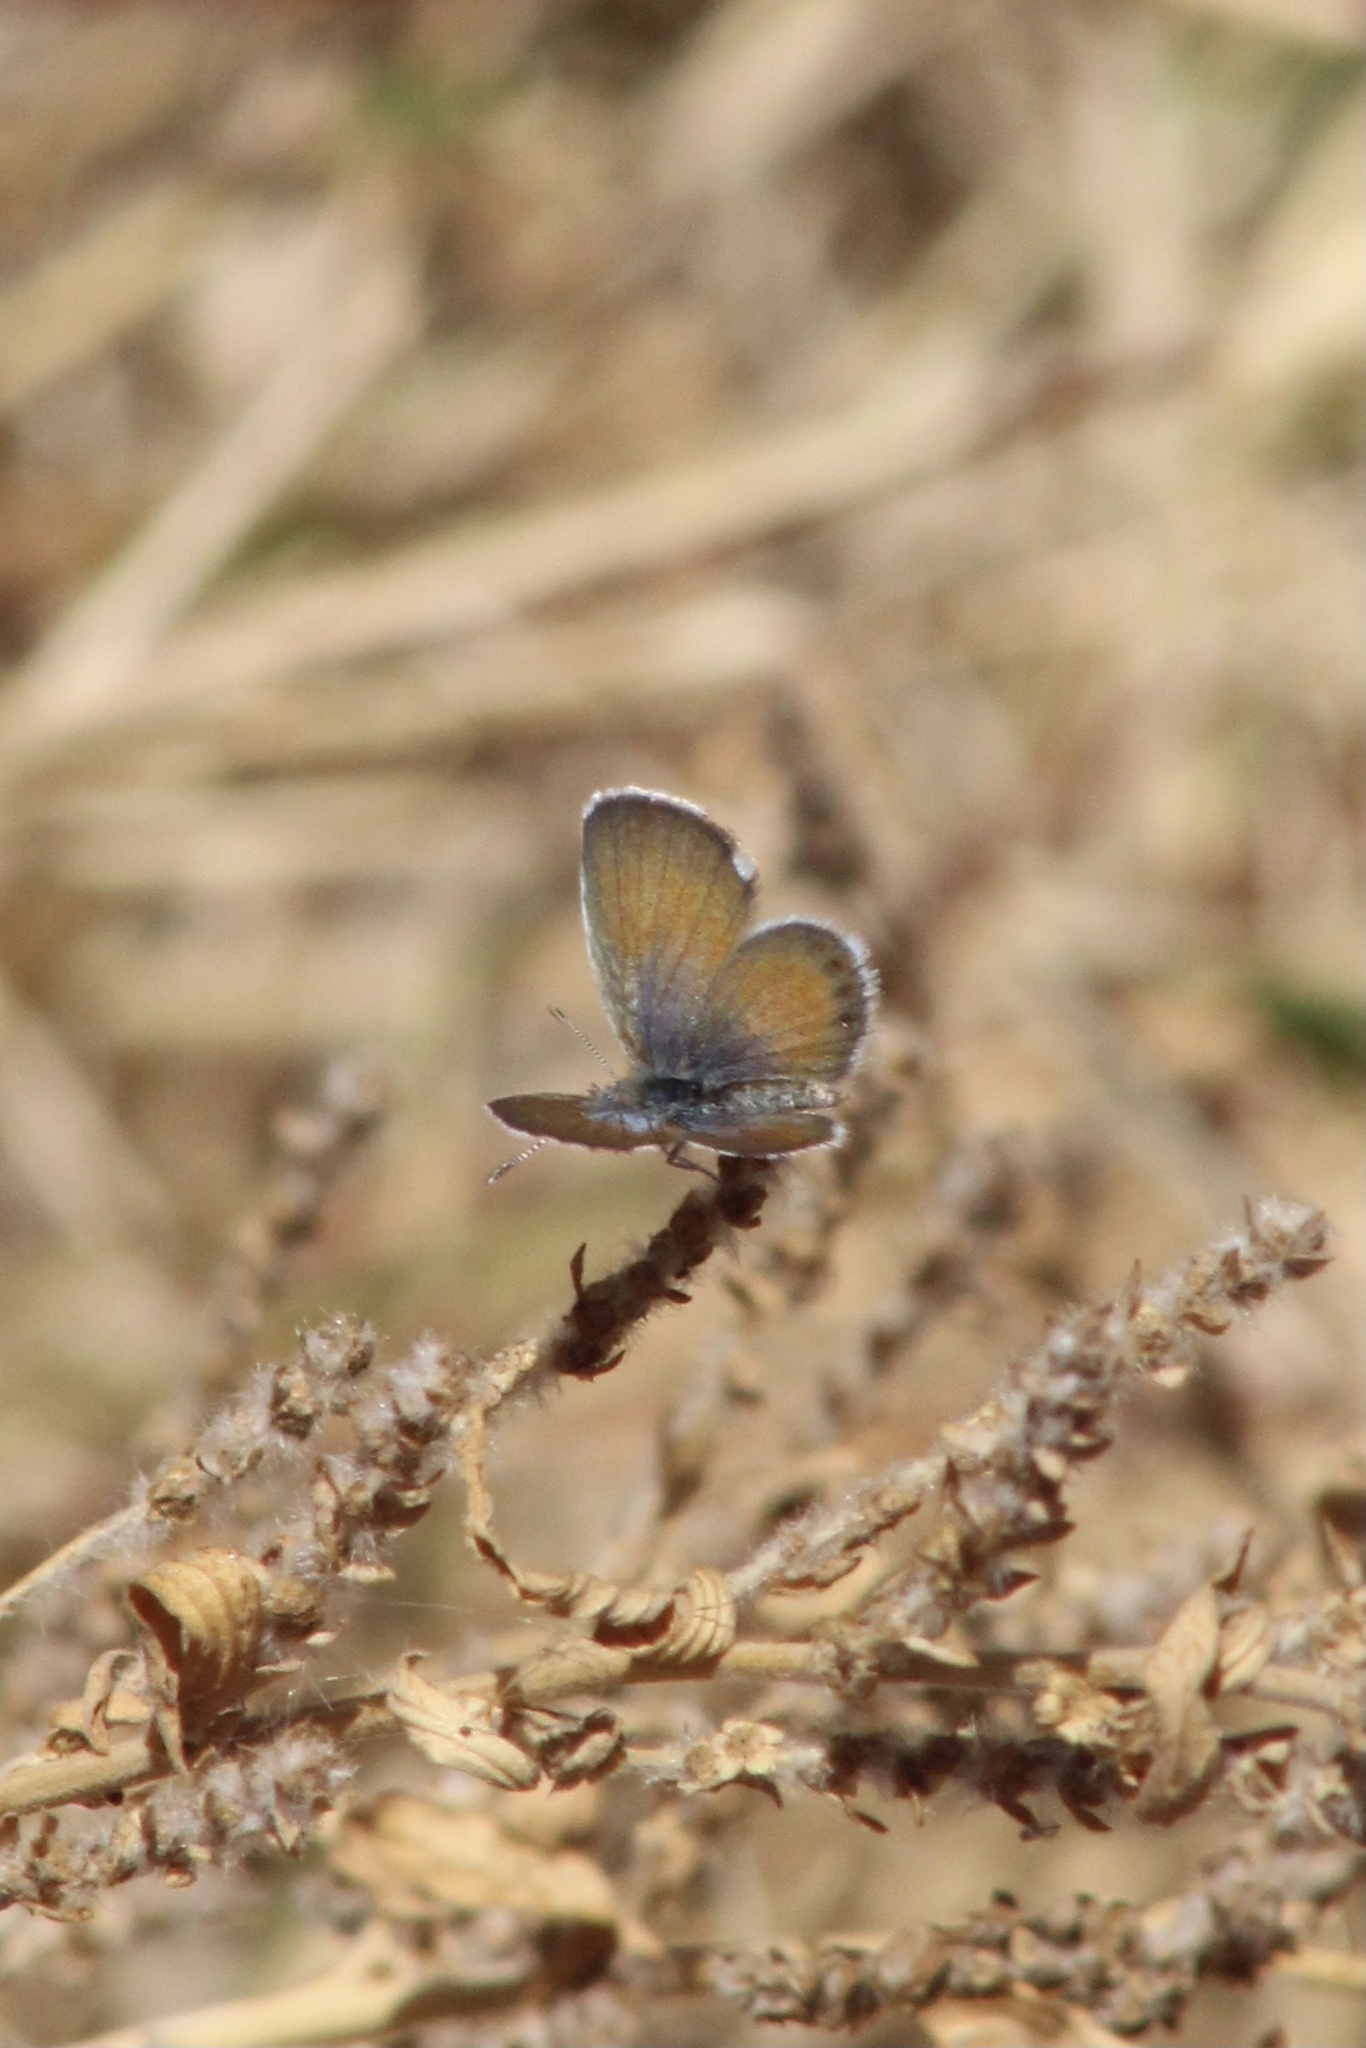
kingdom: Animalia
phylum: Arthropoda
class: Insecta
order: Lepidoptera
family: Lycaenidae
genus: Brephidium
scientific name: Brephidium exilis
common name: Pygmy blue
